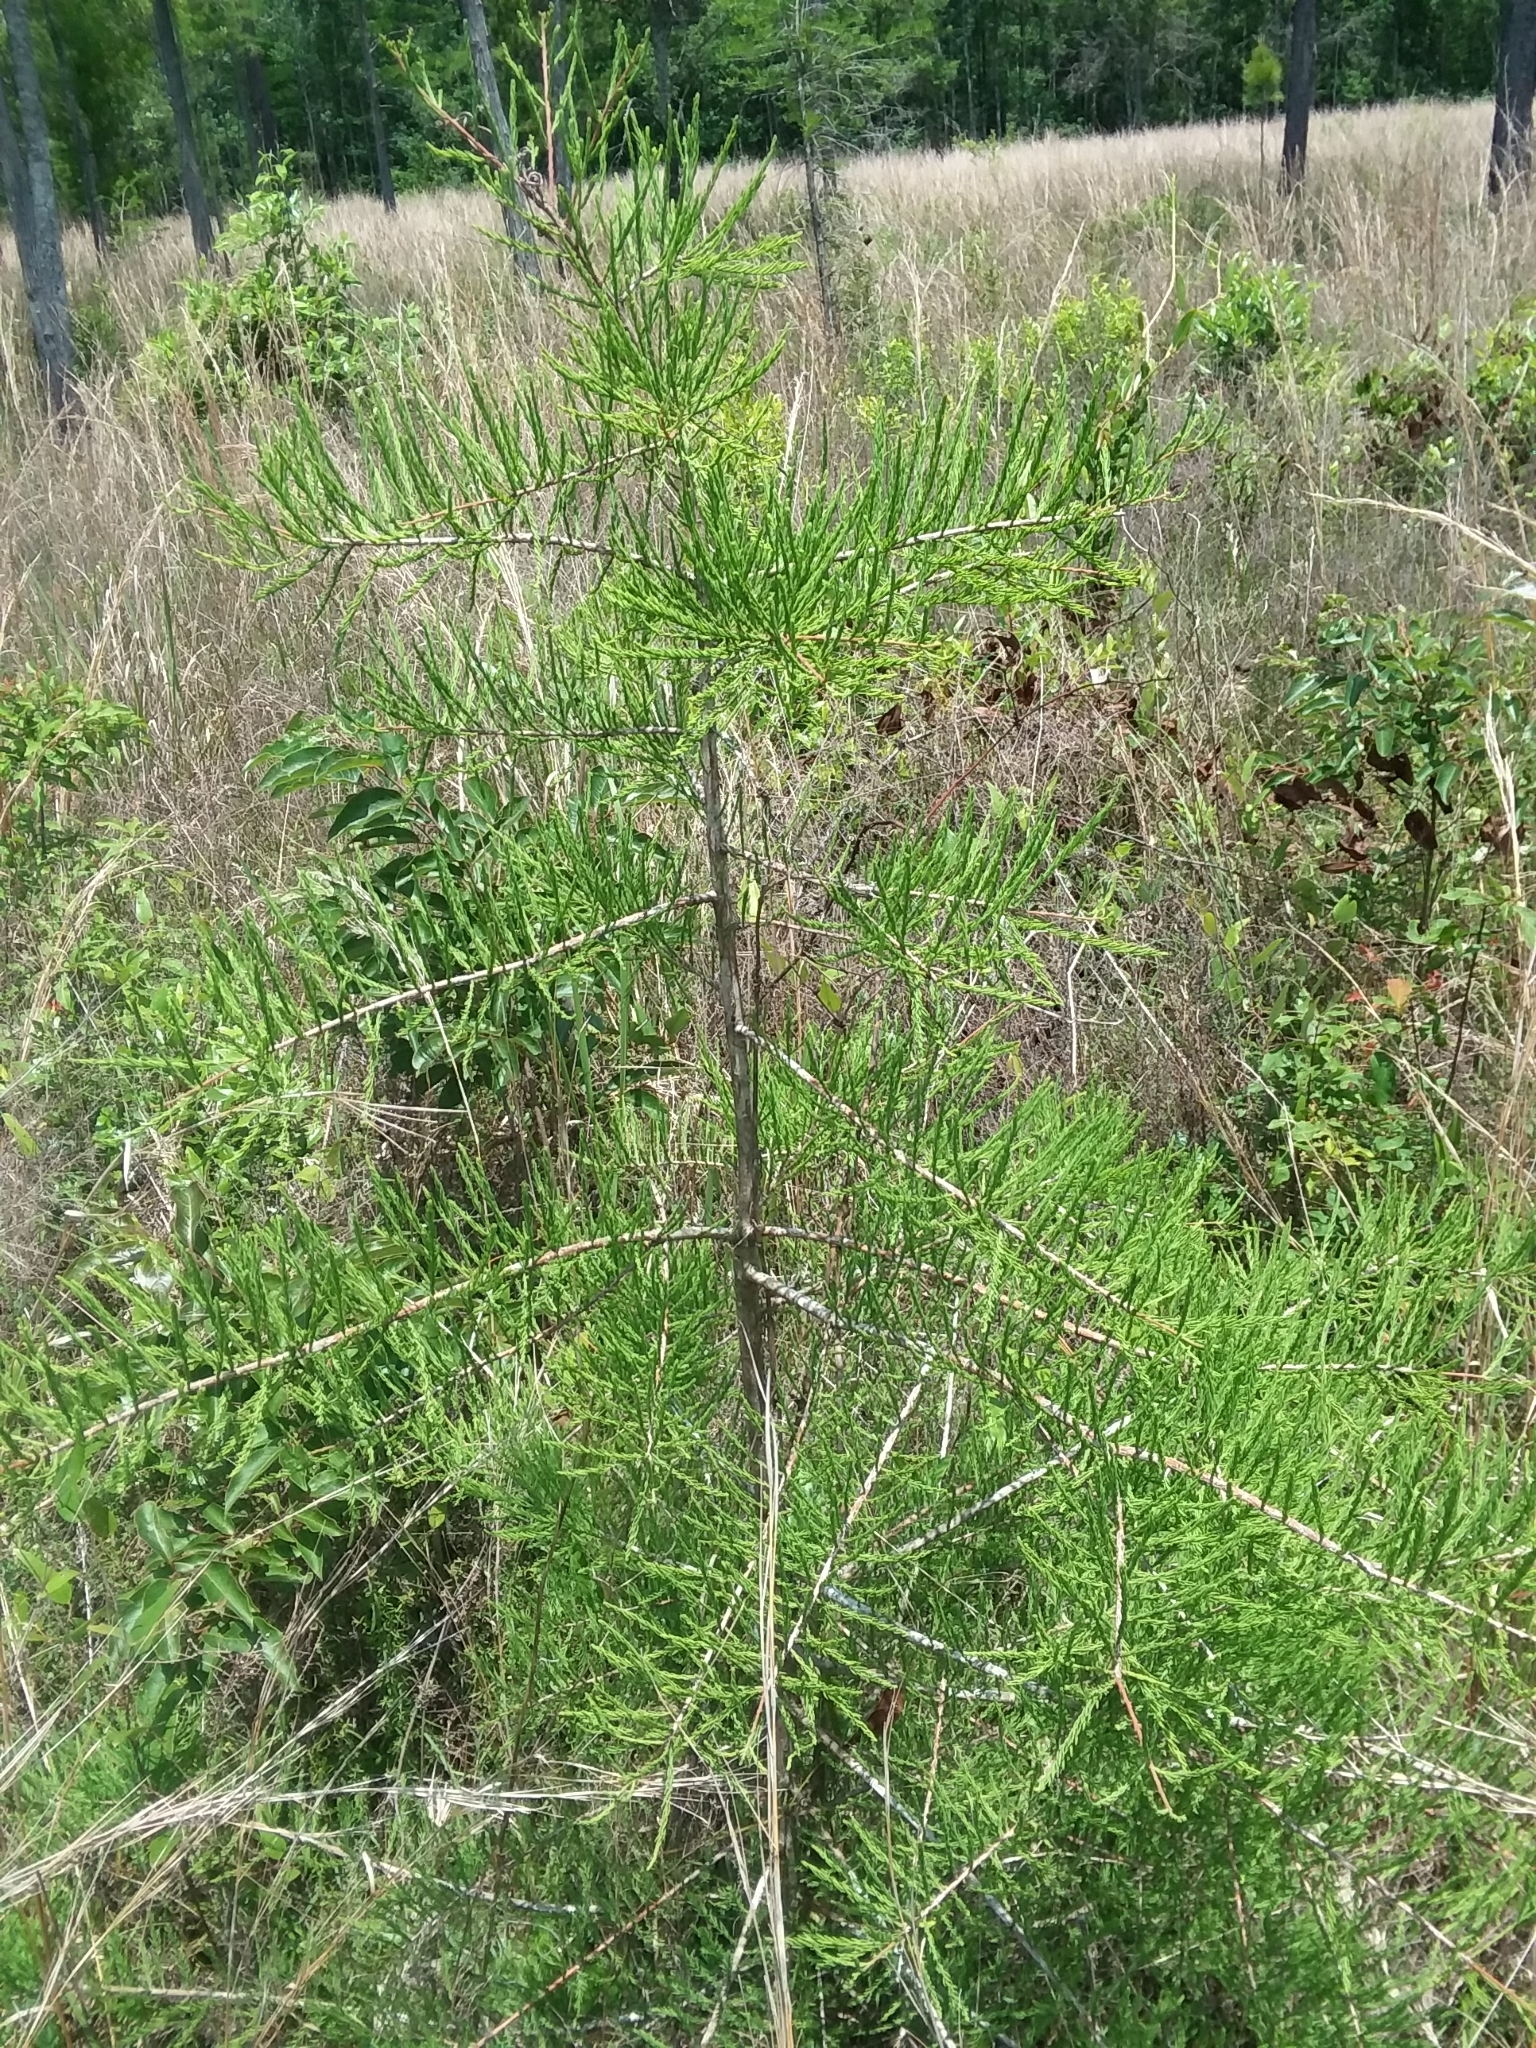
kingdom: Plantae
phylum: Tracheophyta
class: Pinopsida
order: Pinales
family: Cupressaceae
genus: Taxodium
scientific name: Taxodium distichum
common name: Bald cypress
